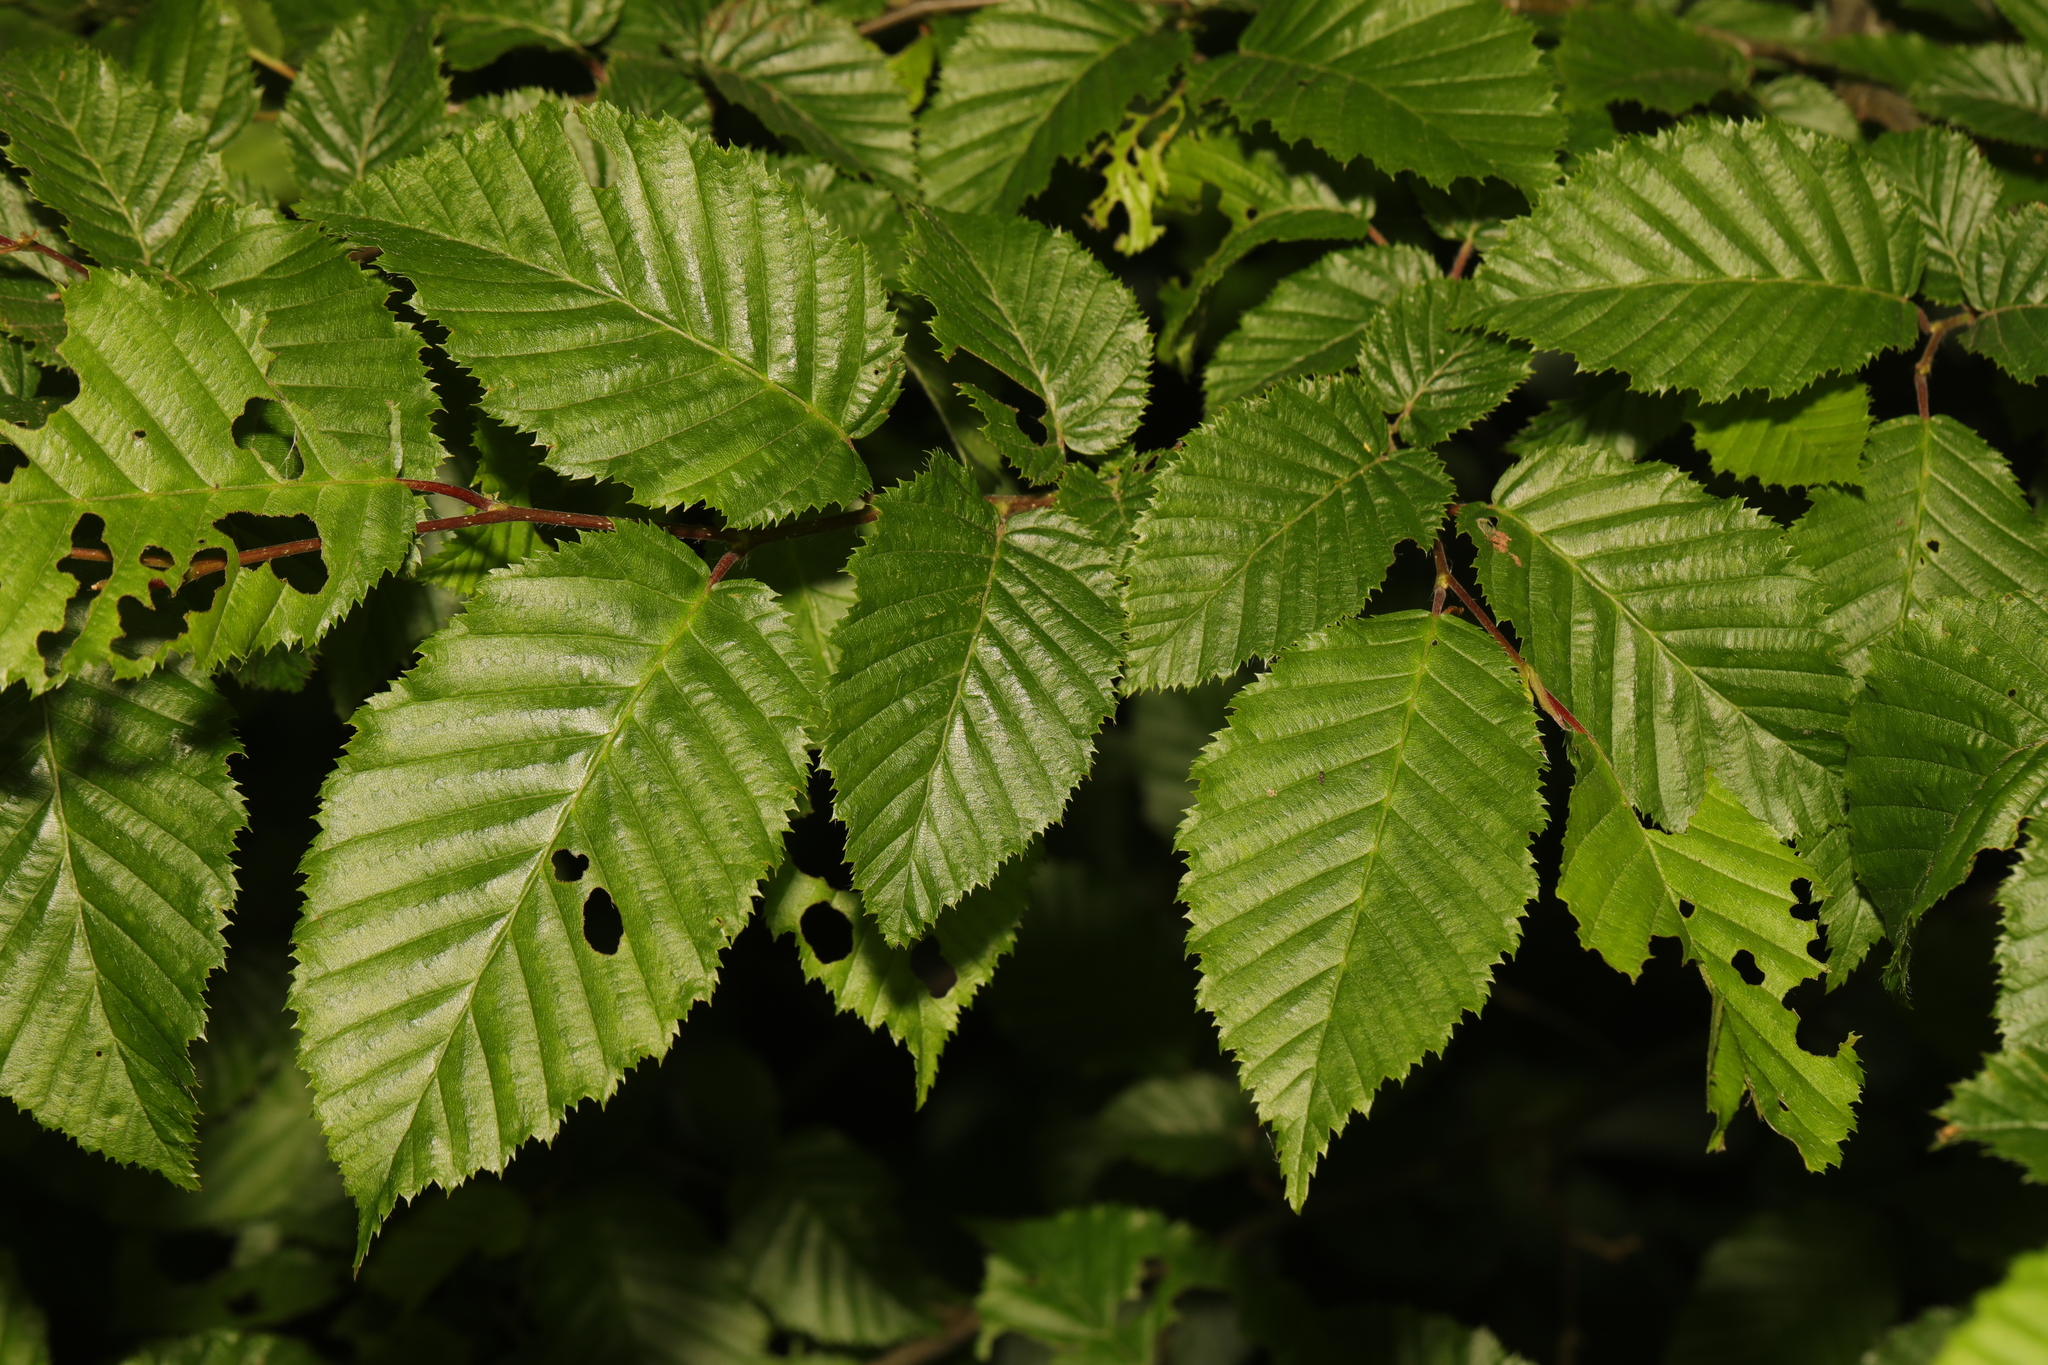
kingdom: Plantae
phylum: Tracheophyta
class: Magnoliopsida
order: Fagales
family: Betulaceae
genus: Carpinus
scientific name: Carpinus betulus
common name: Hornbeam
